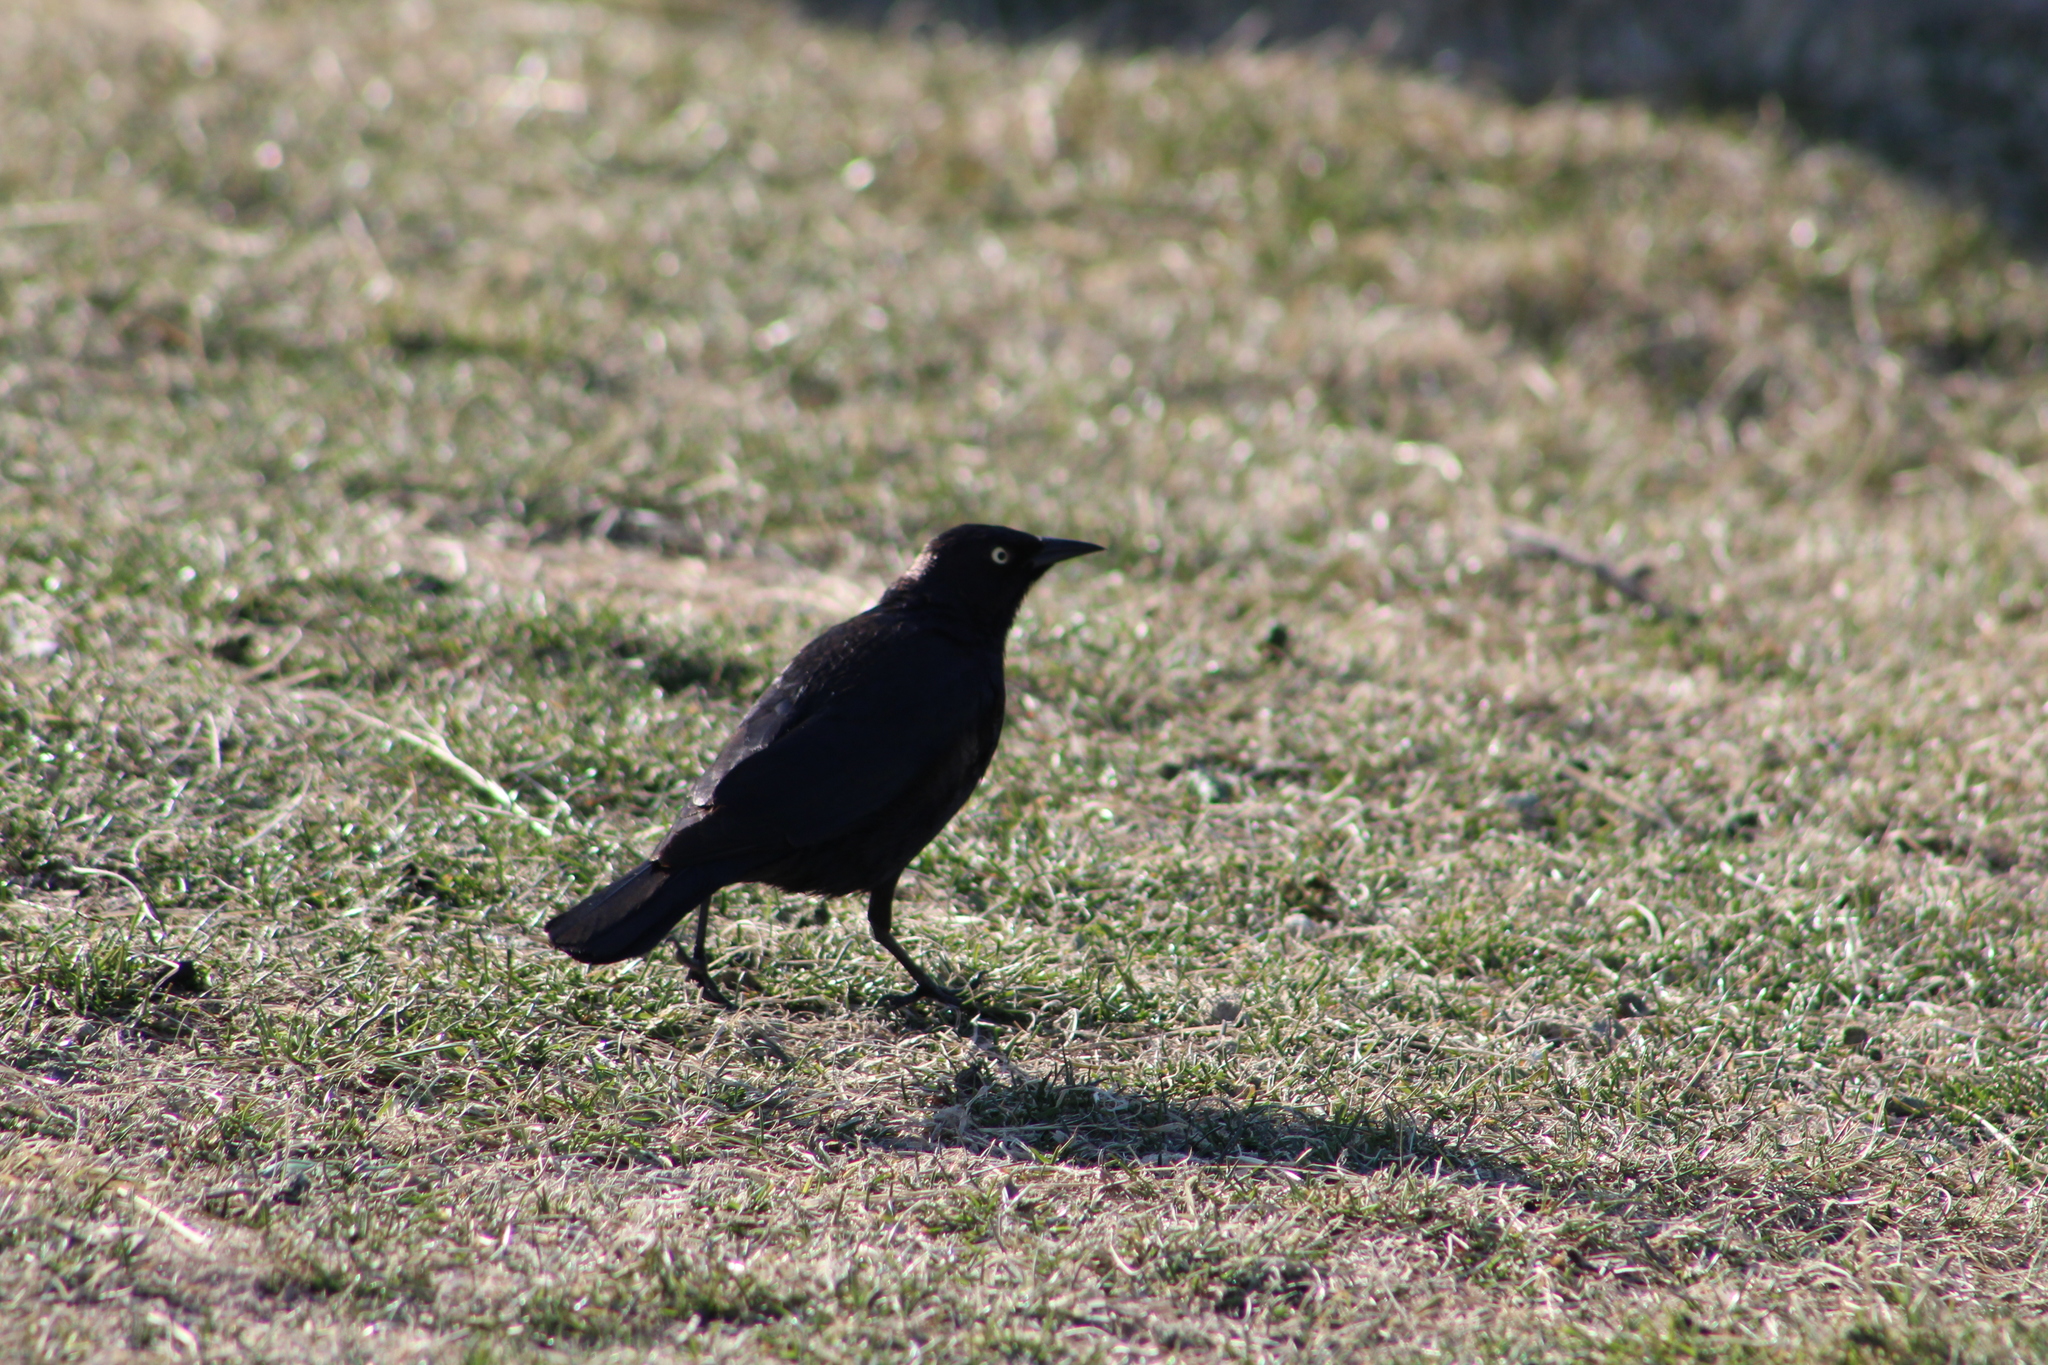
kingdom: Animalia
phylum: Chordata
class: Aves
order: Passeriformes
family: Icteridae
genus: Euphagus
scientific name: Euphagus cyanocephalus
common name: Brewer's blackbird
